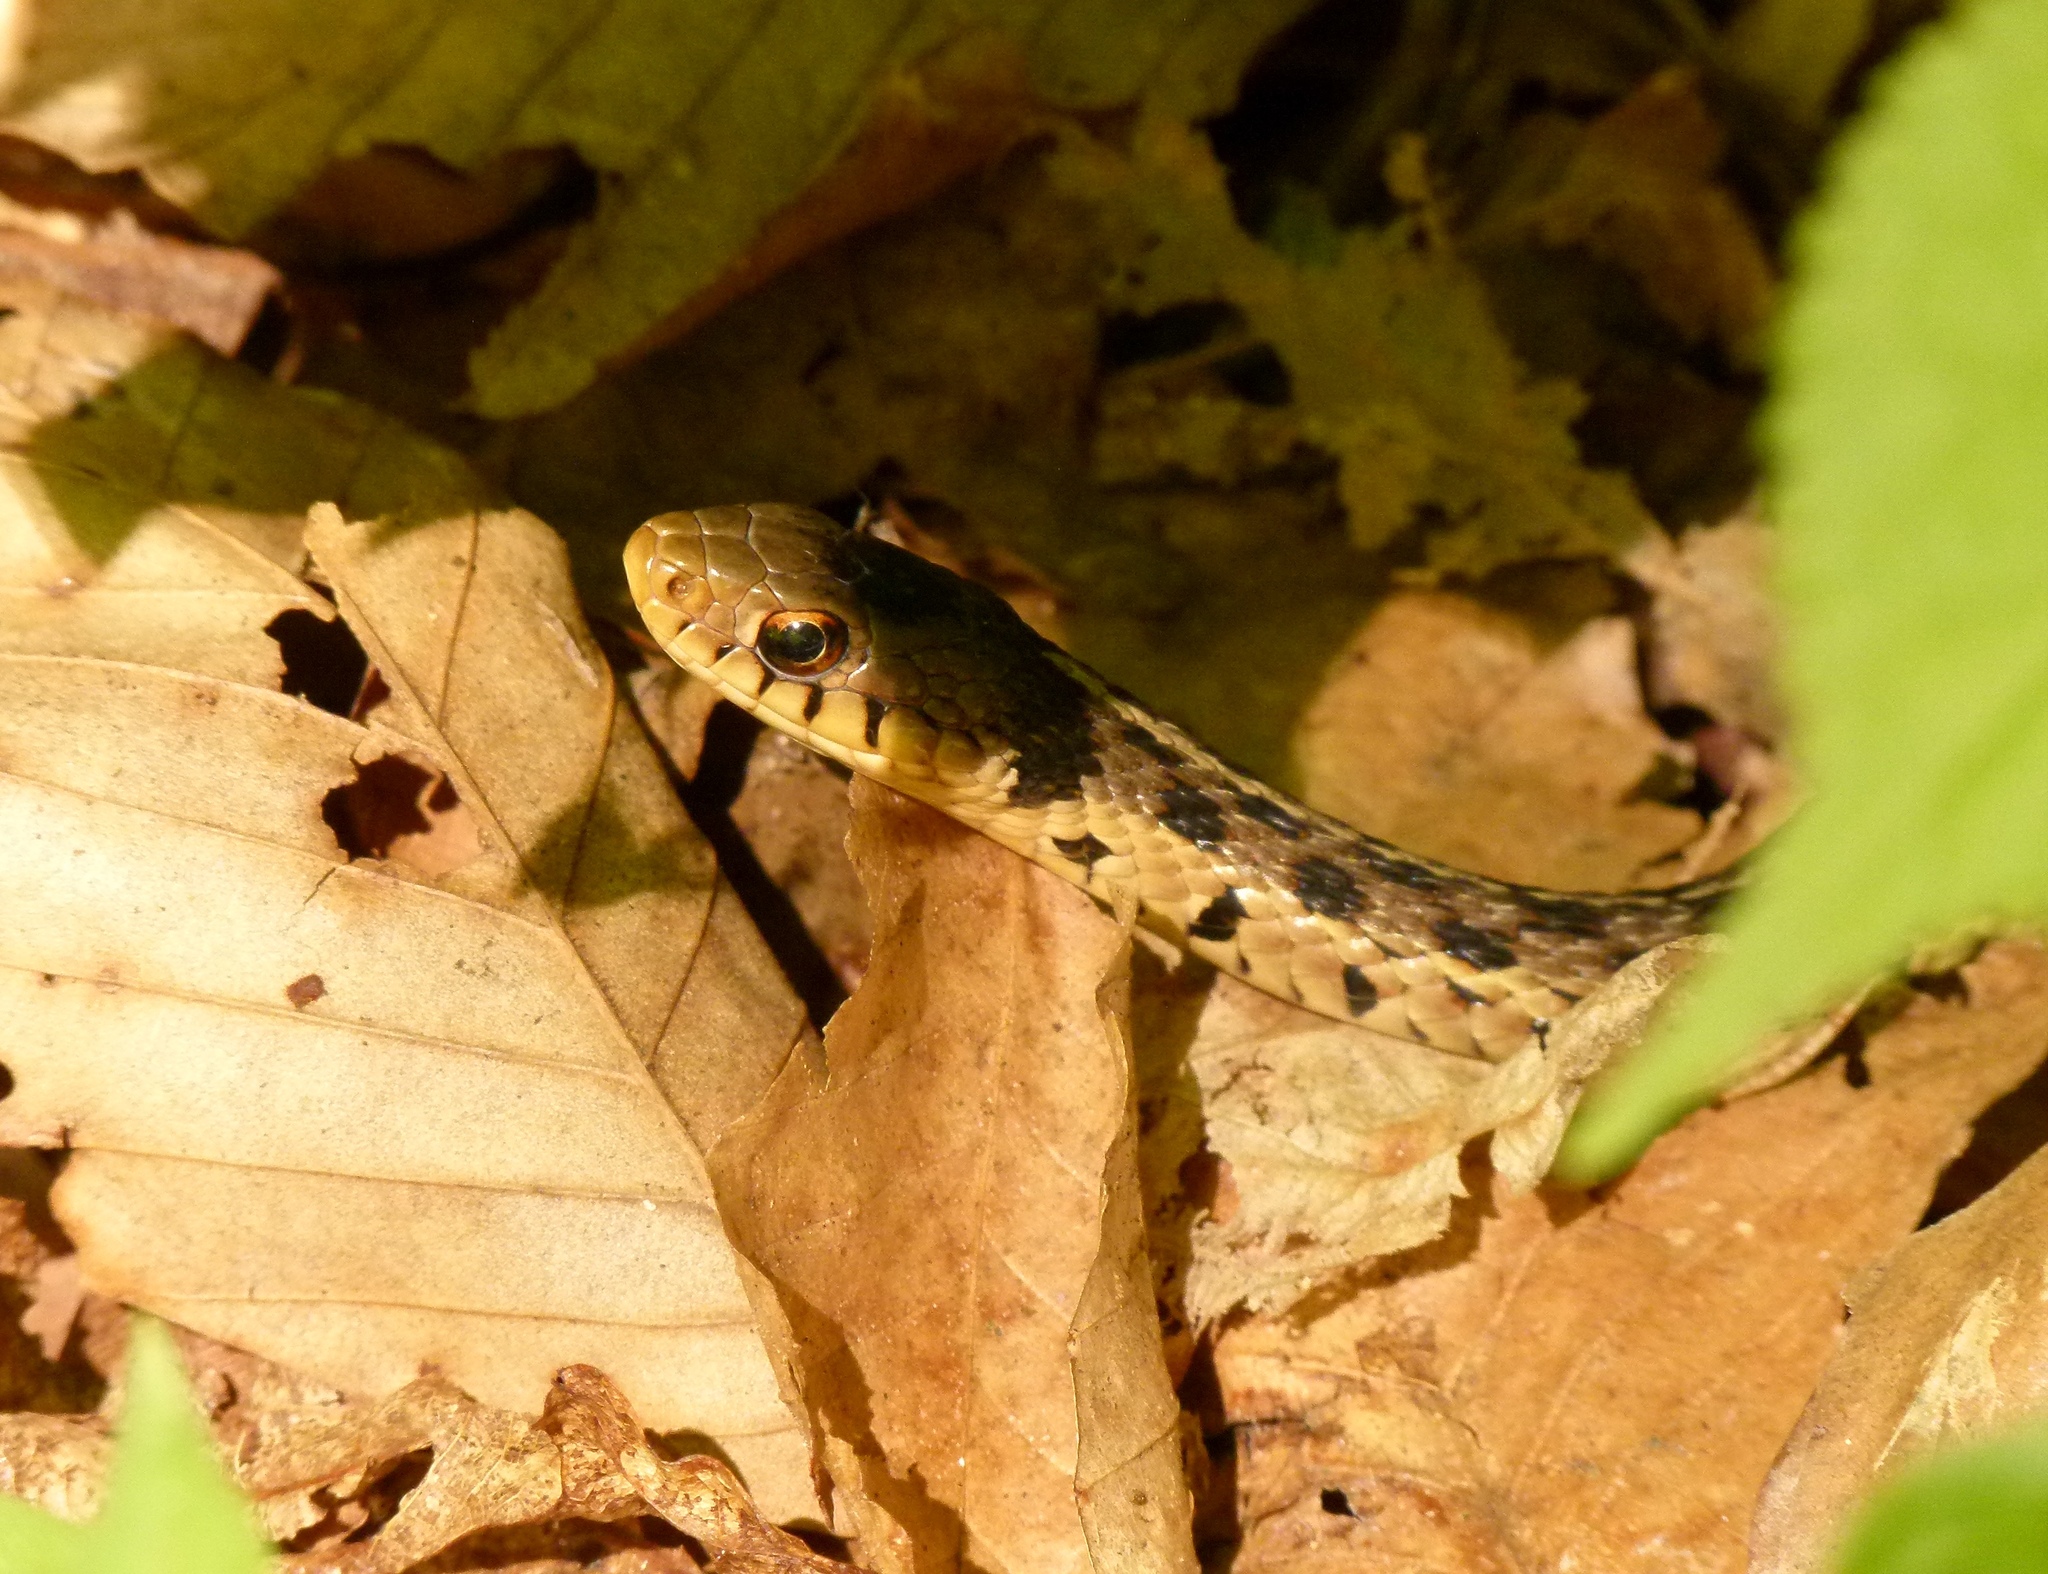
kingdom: Animalia
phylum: Chordata
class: Squamata
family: Colubridae
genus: Thamnophis
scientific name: Thamnophis sirtalis
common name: Common garter snake
